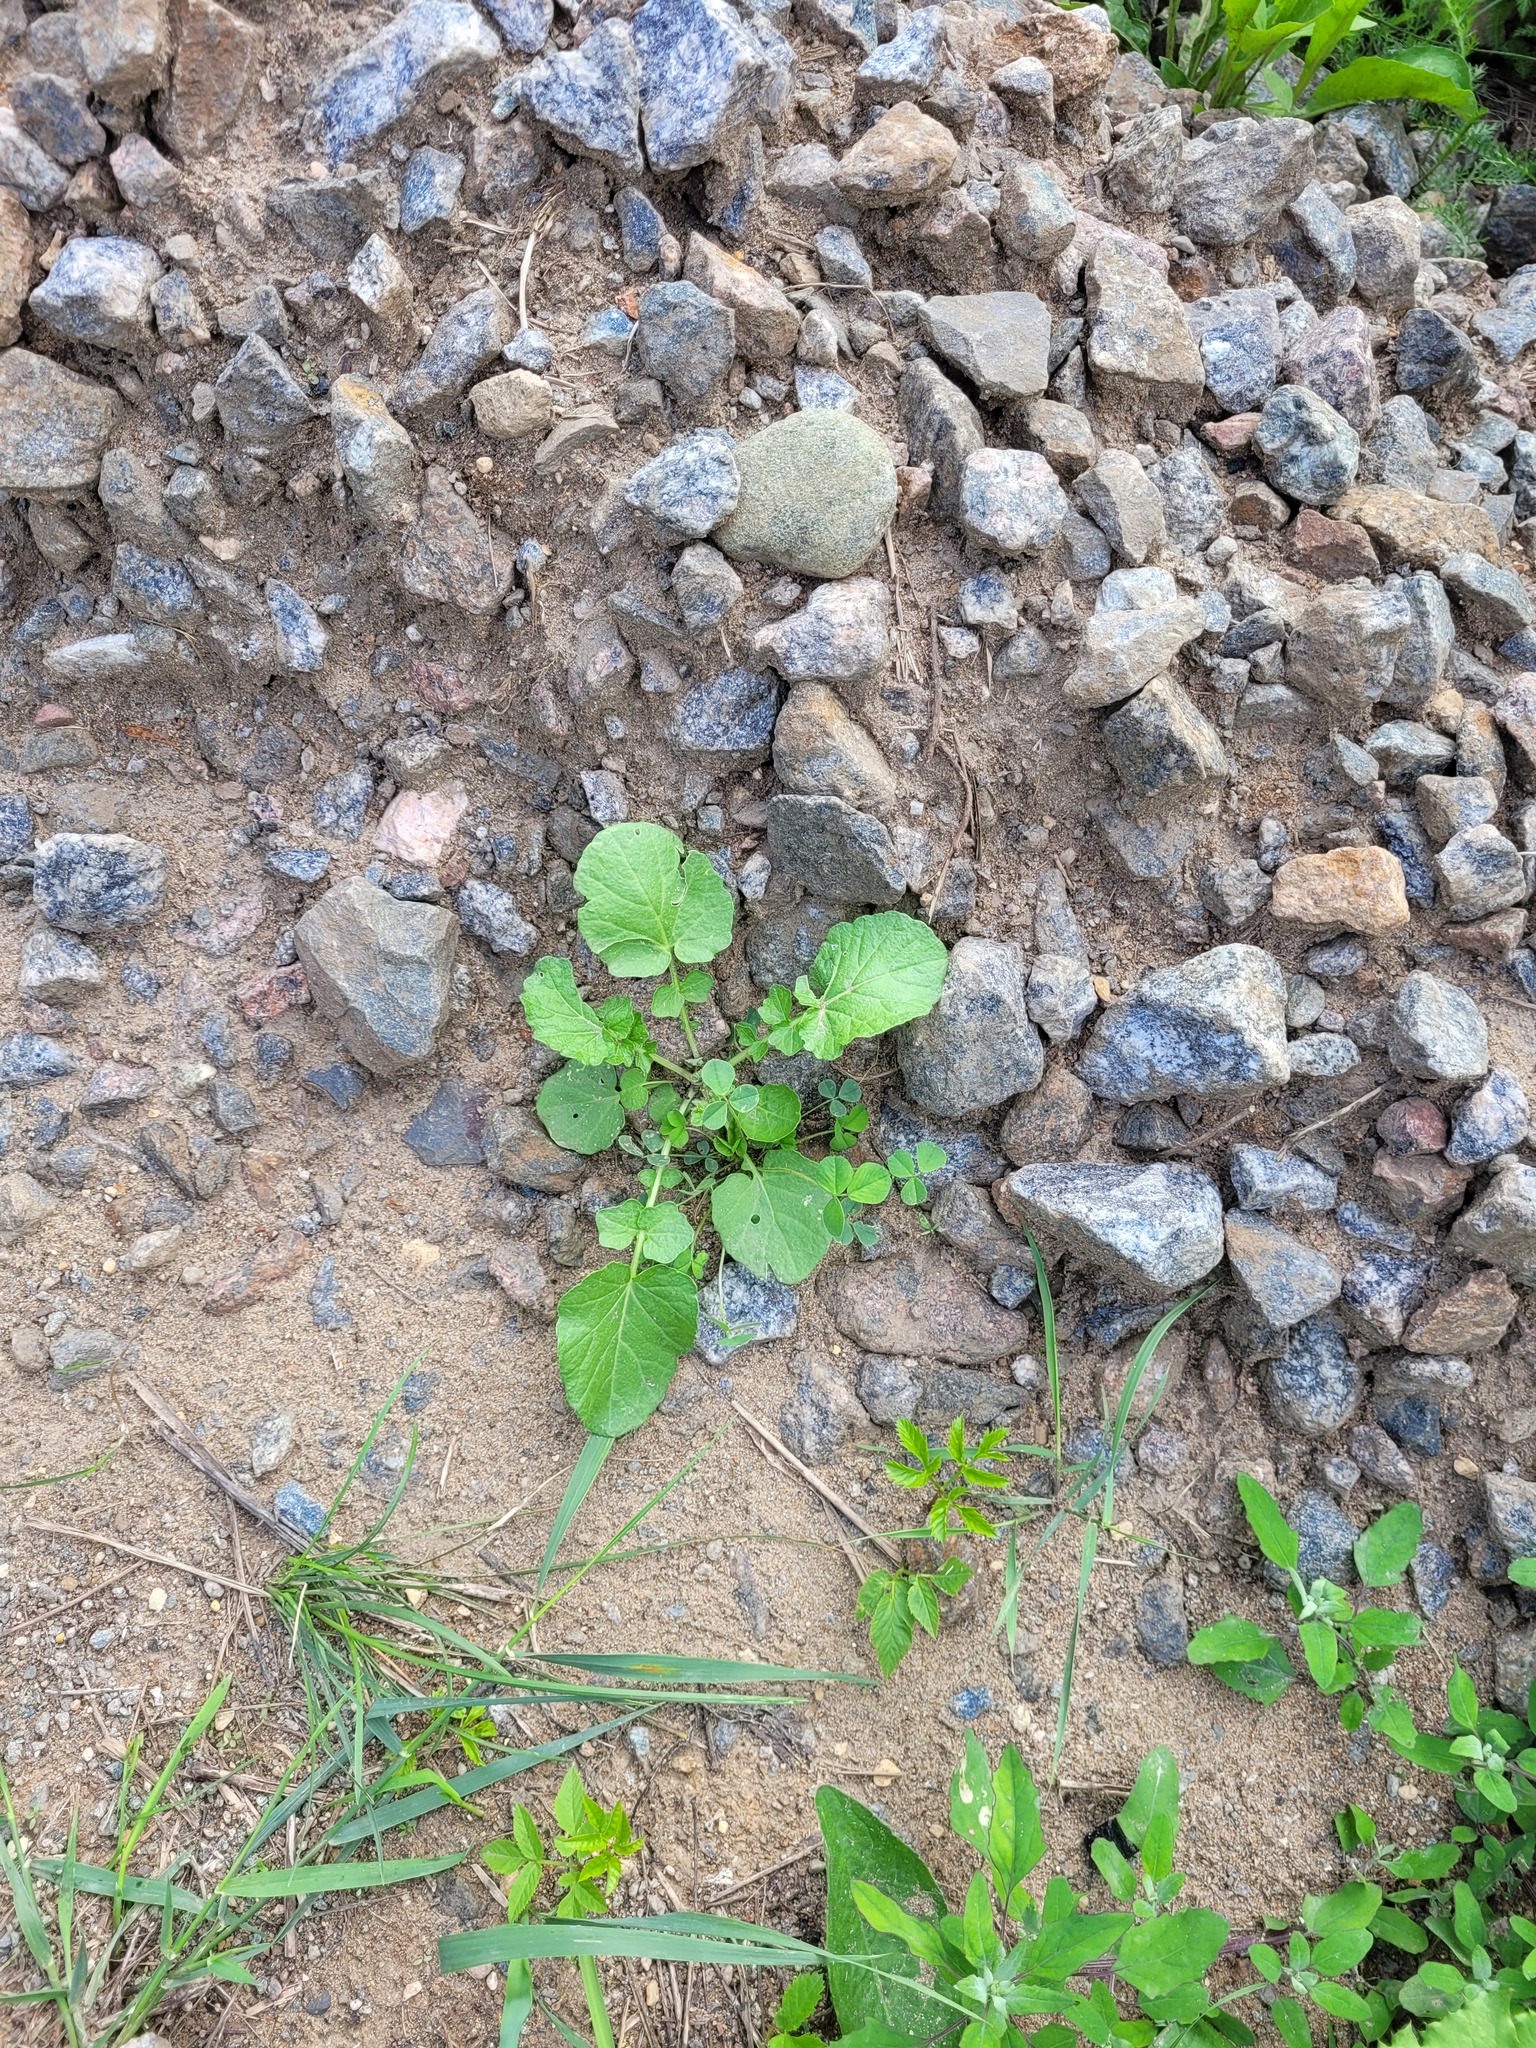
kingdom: Plantae
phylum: Tracheophyta
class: Magnoliopsida
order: Brassicales
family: Brassicaceae
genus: Barbarea
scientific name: Barbarea vulgaris
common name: Cressy-greens
